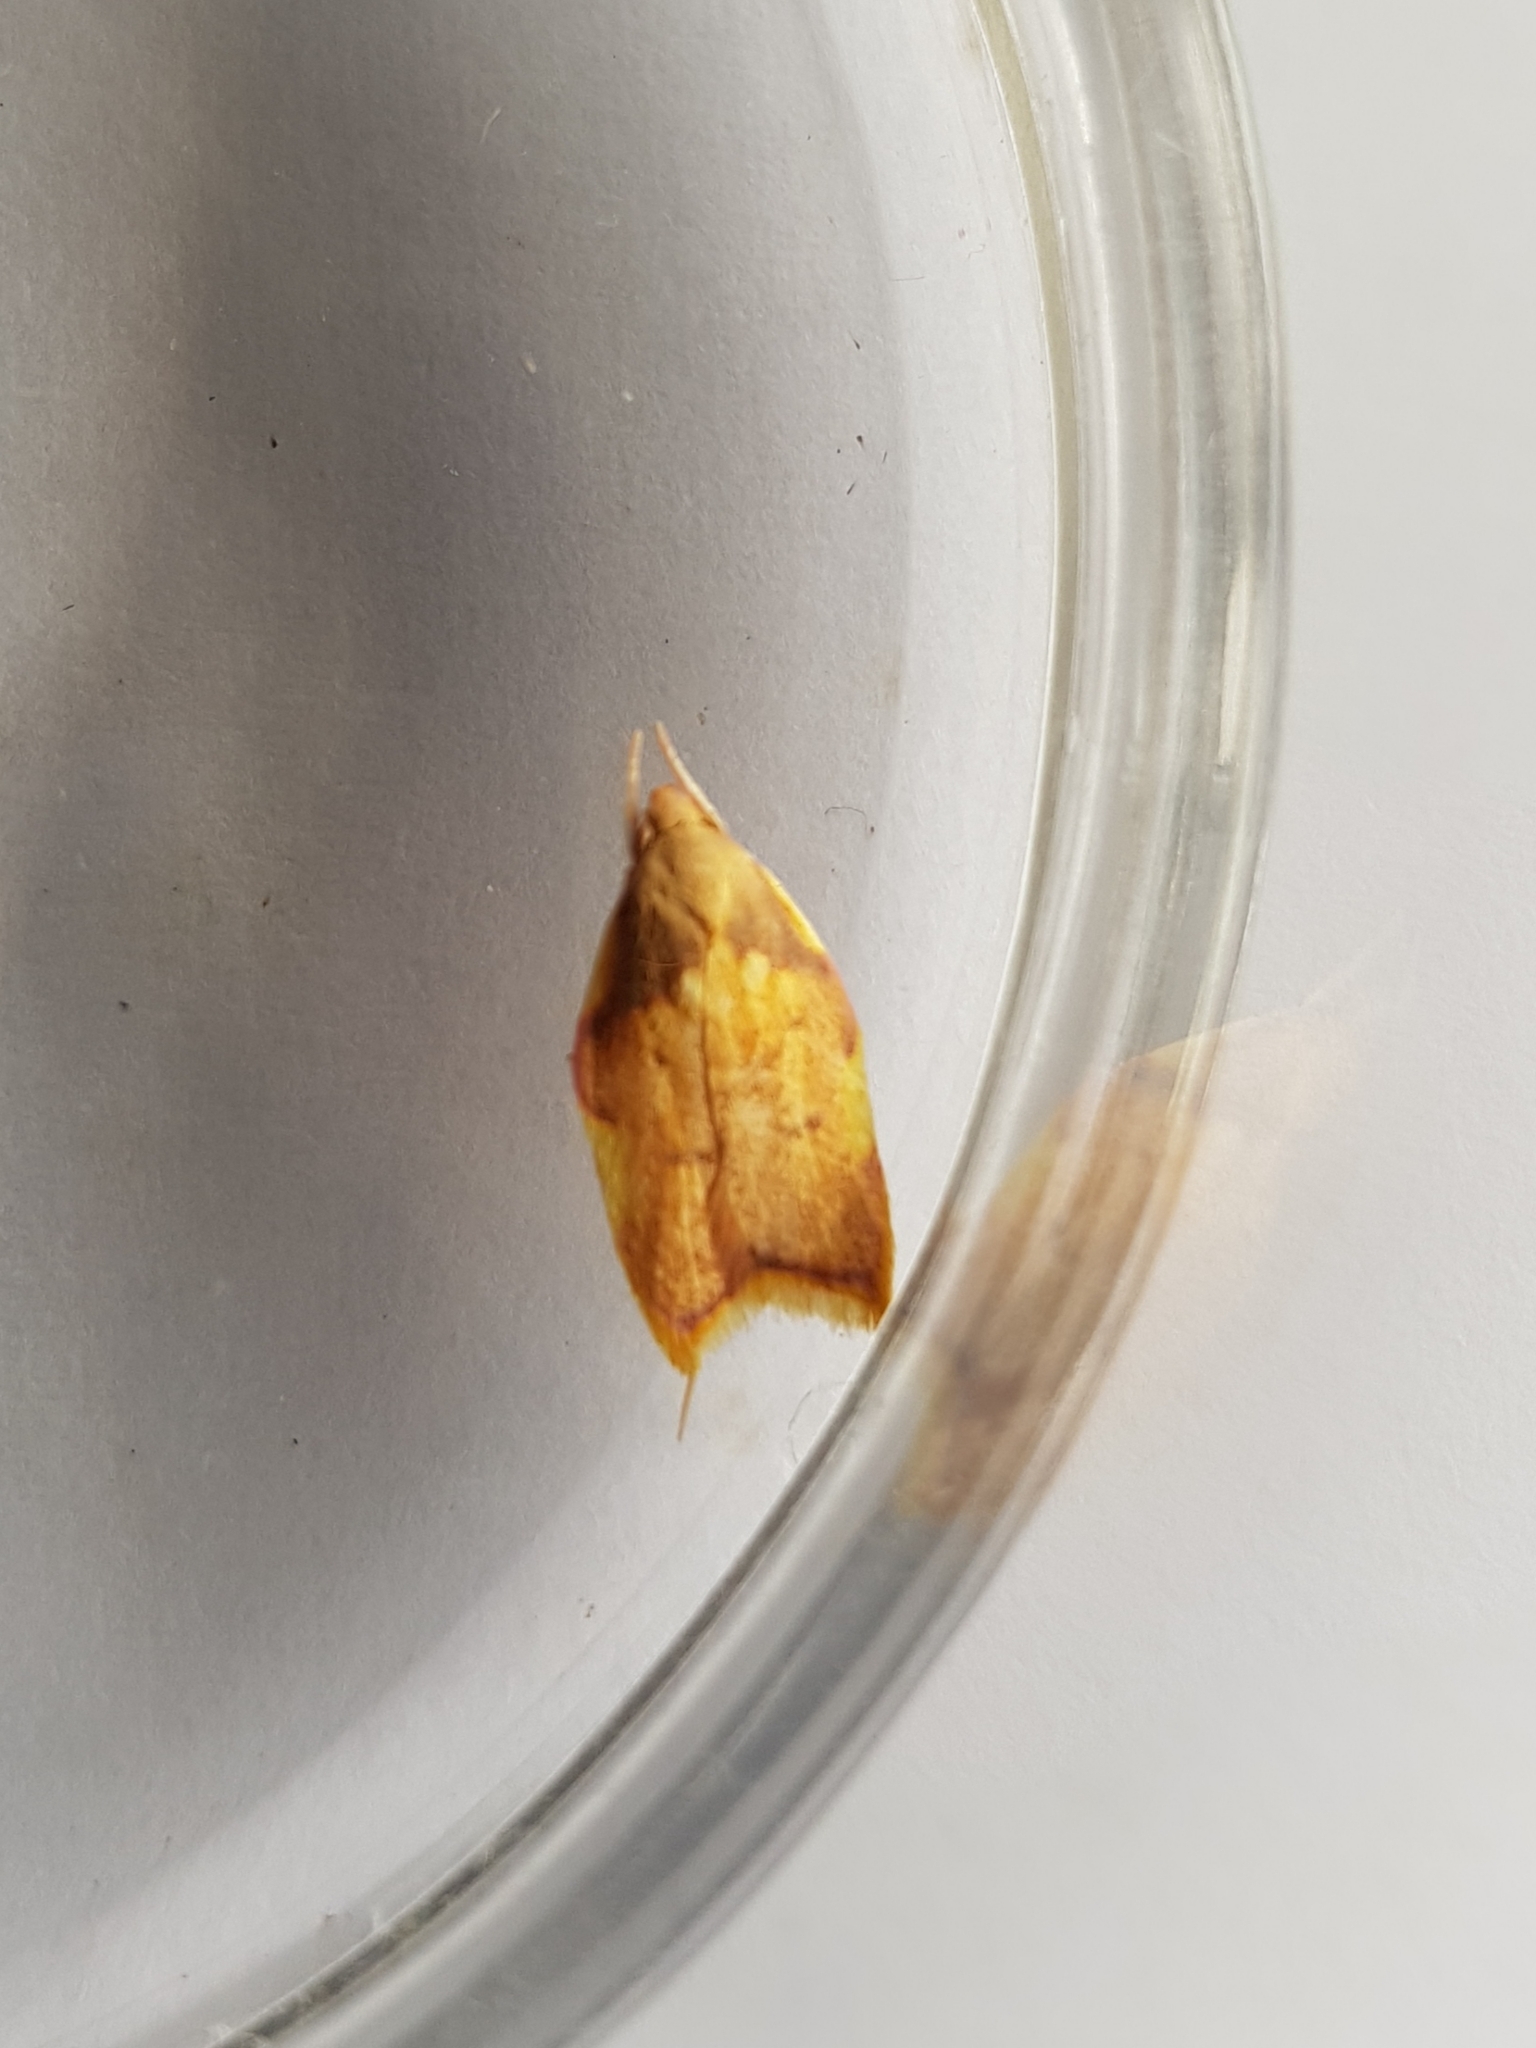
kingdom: Animalia
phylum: Arthropoda
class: Insecta
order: Lepidoptera
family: Peleopodidae
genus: Carcina
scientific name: Carcina quercana
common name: Moth
